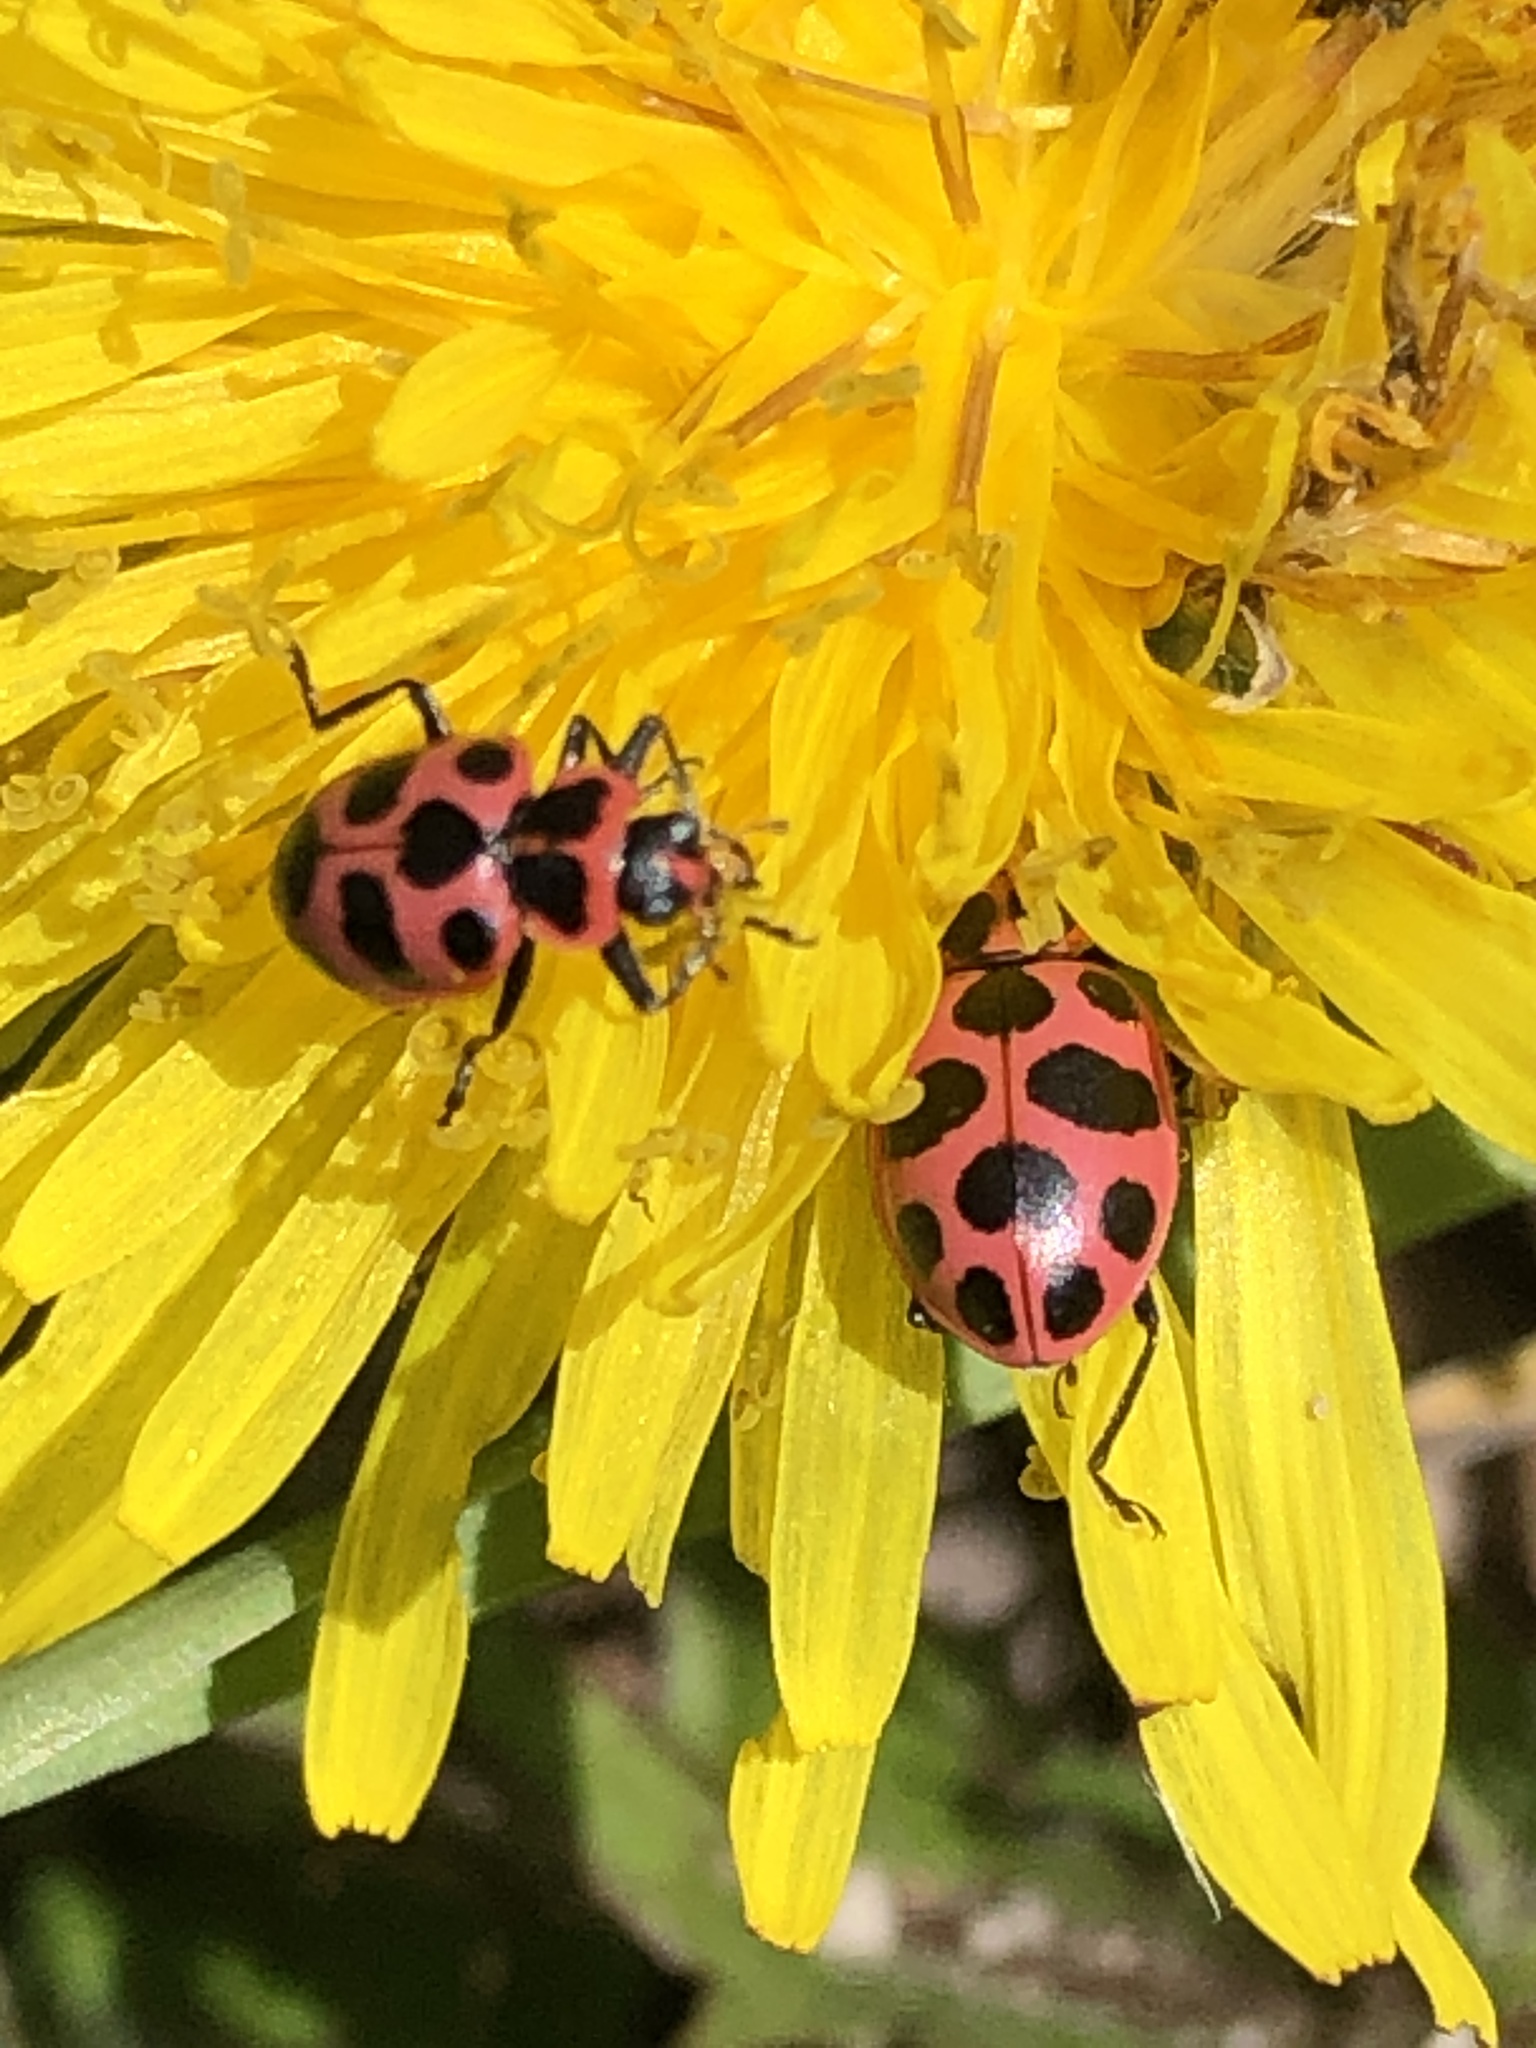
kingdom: Animalia
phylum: Arthropoda
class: Insecta
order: Coleoptera
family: Coccinellidae
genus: Coleomegilla
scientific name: Coleomegilla maculata
